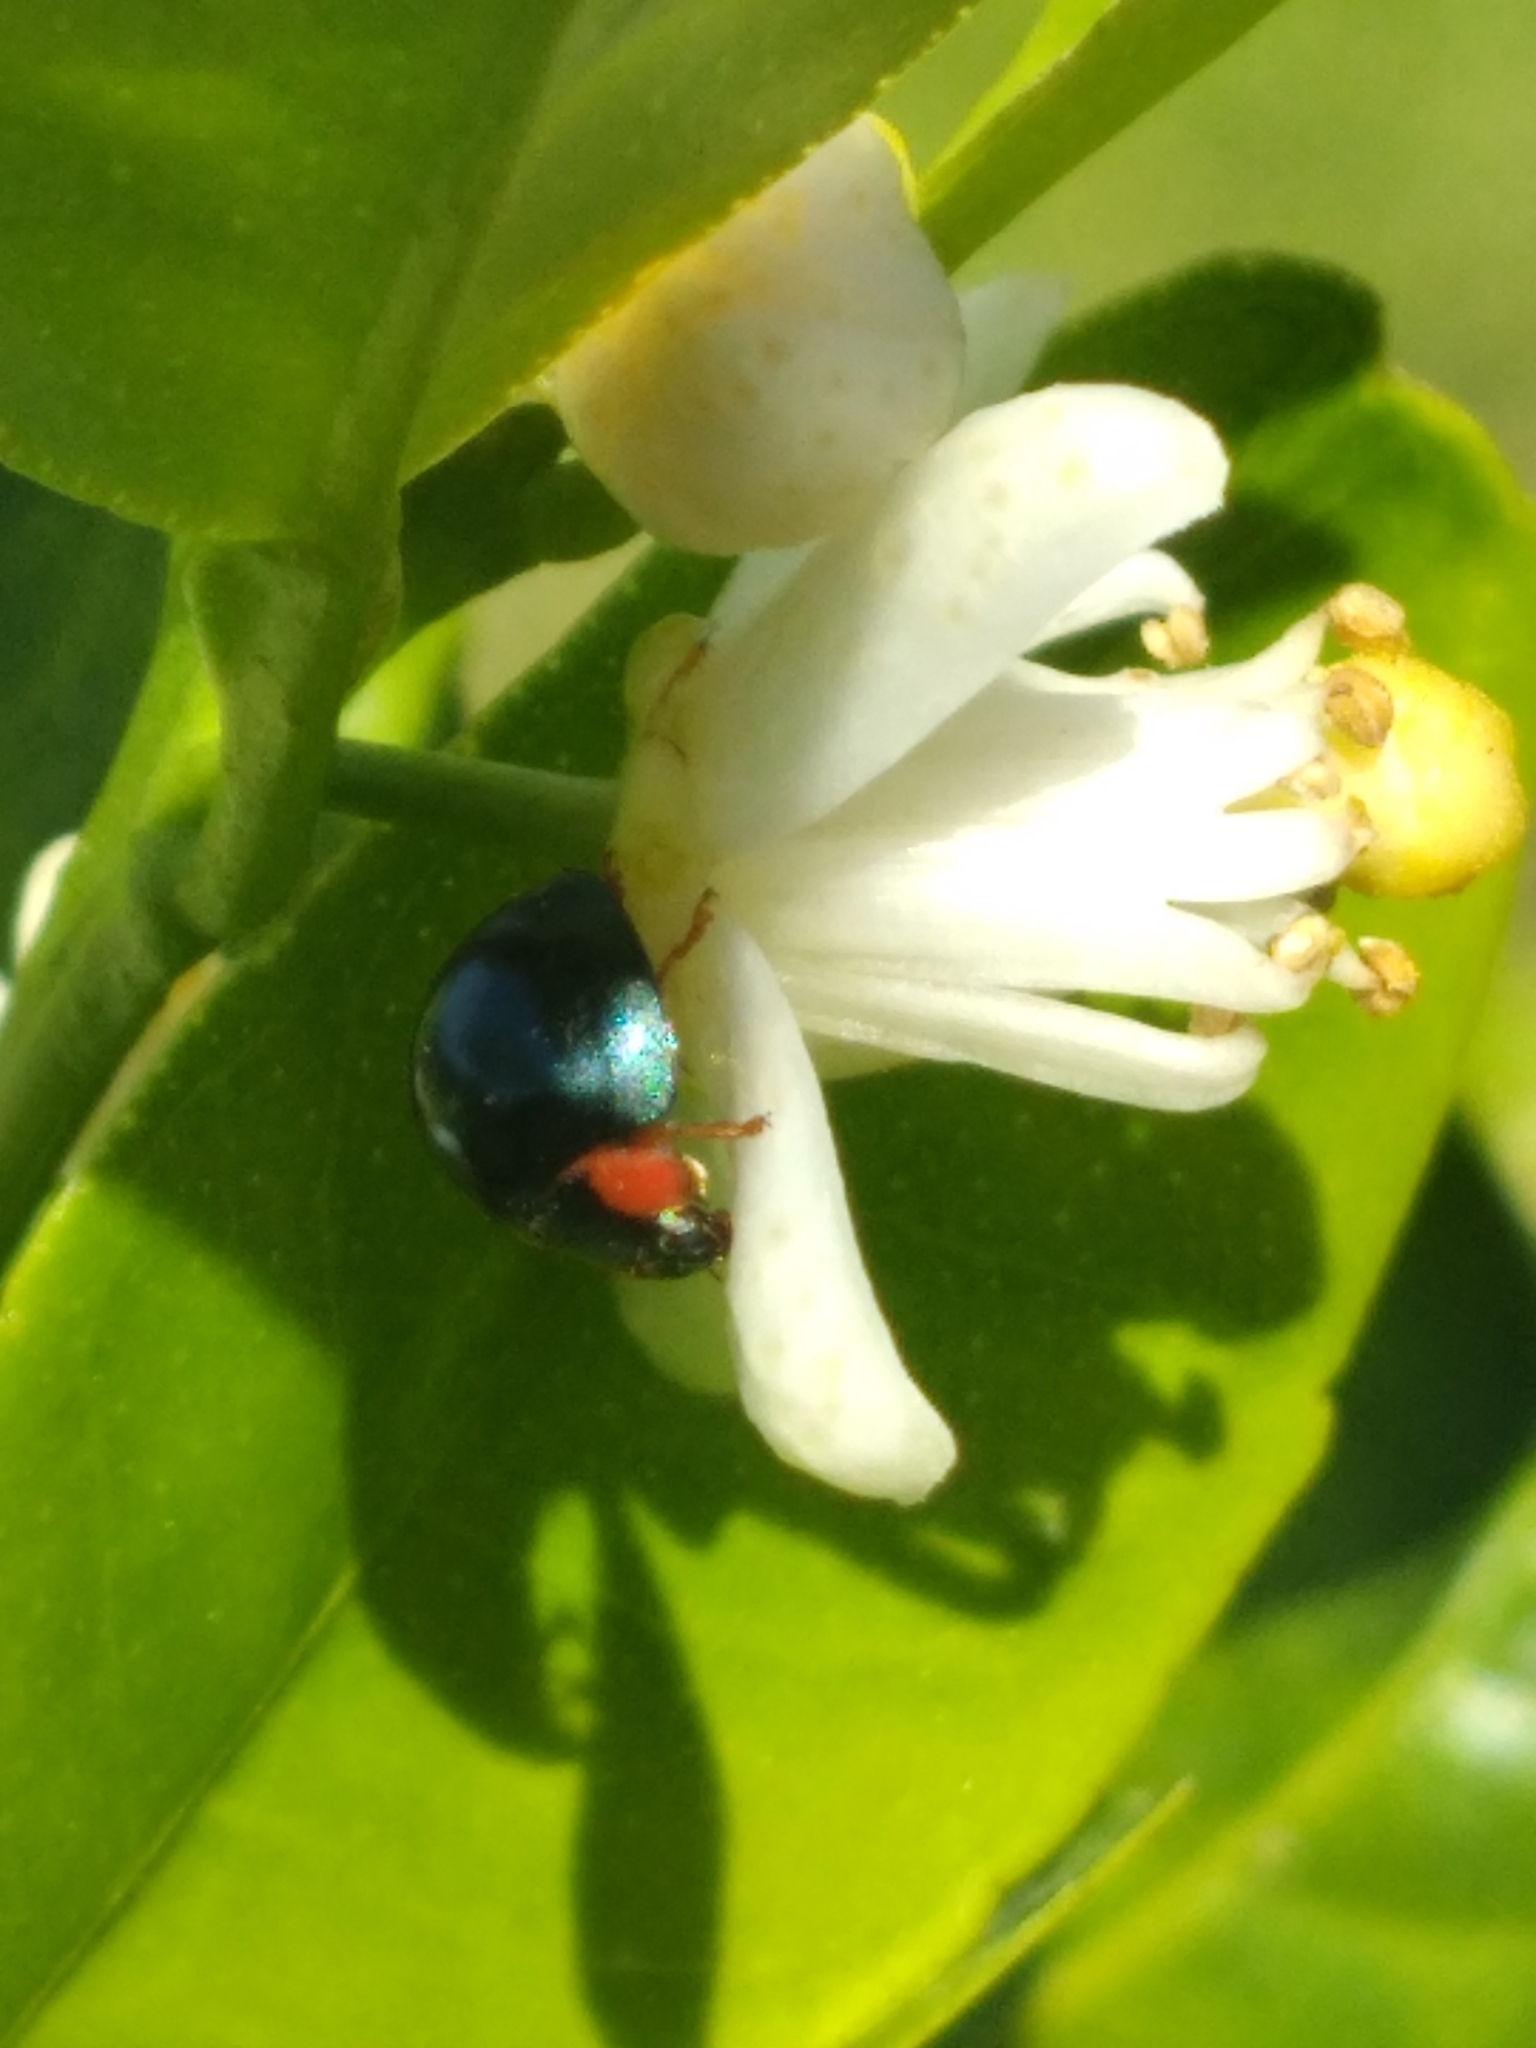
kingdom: Animalia
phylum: Arthropoda
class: Insecta
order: Coleoptera
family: Coccinellidae
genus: Curinus
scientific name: Curinus coeruleus
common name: Ladybird beetle
